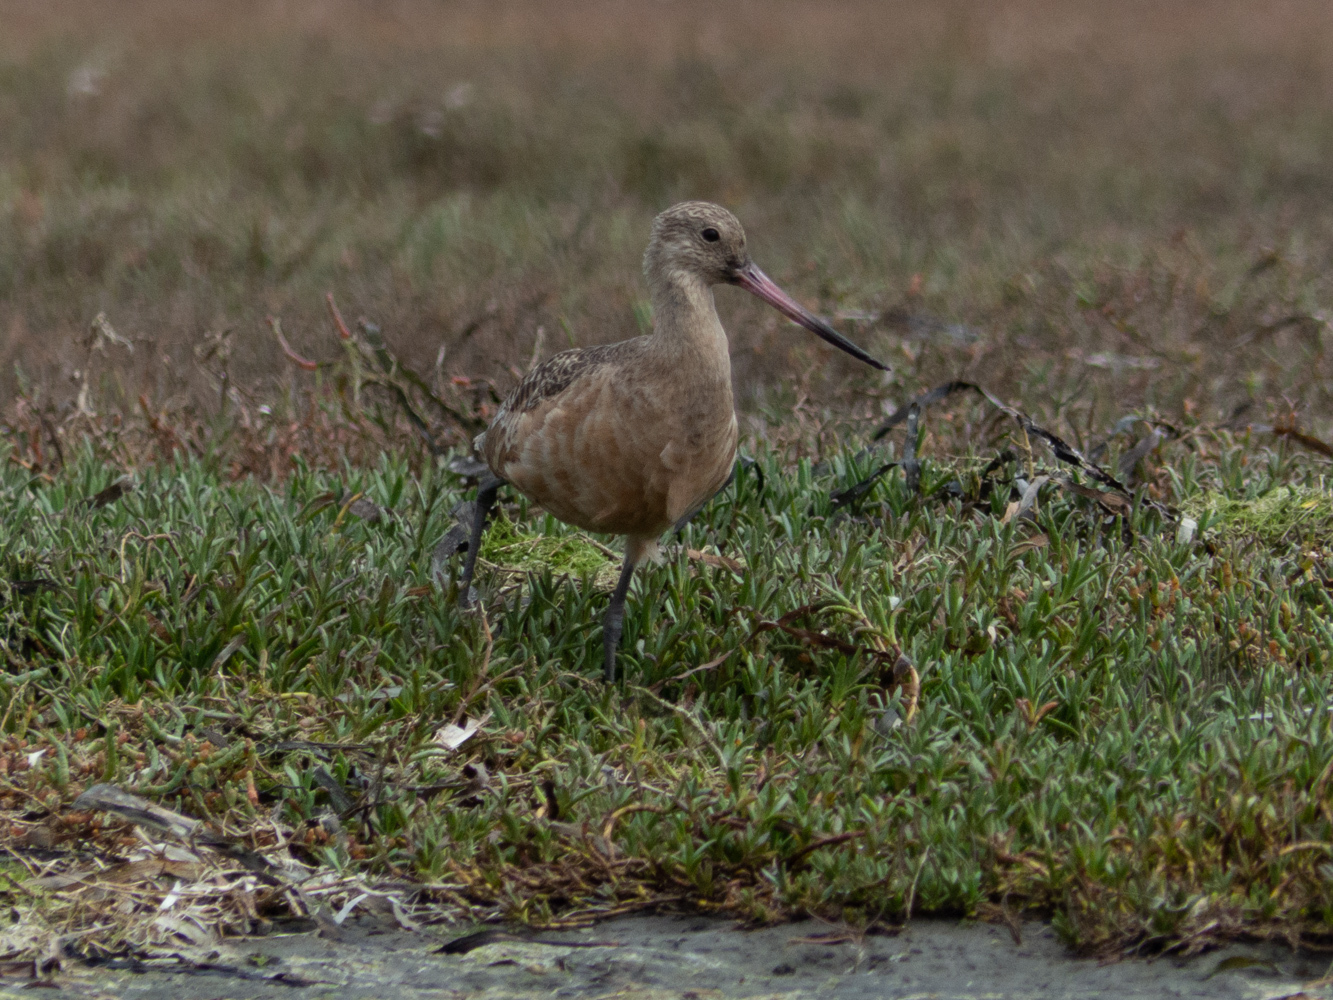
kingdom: Animalia
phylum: Chordata
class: Aves
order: Charadriiformes
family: Scolopacidae
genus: Limosa
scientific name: Limosa fedoa
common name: Marbled godwit
